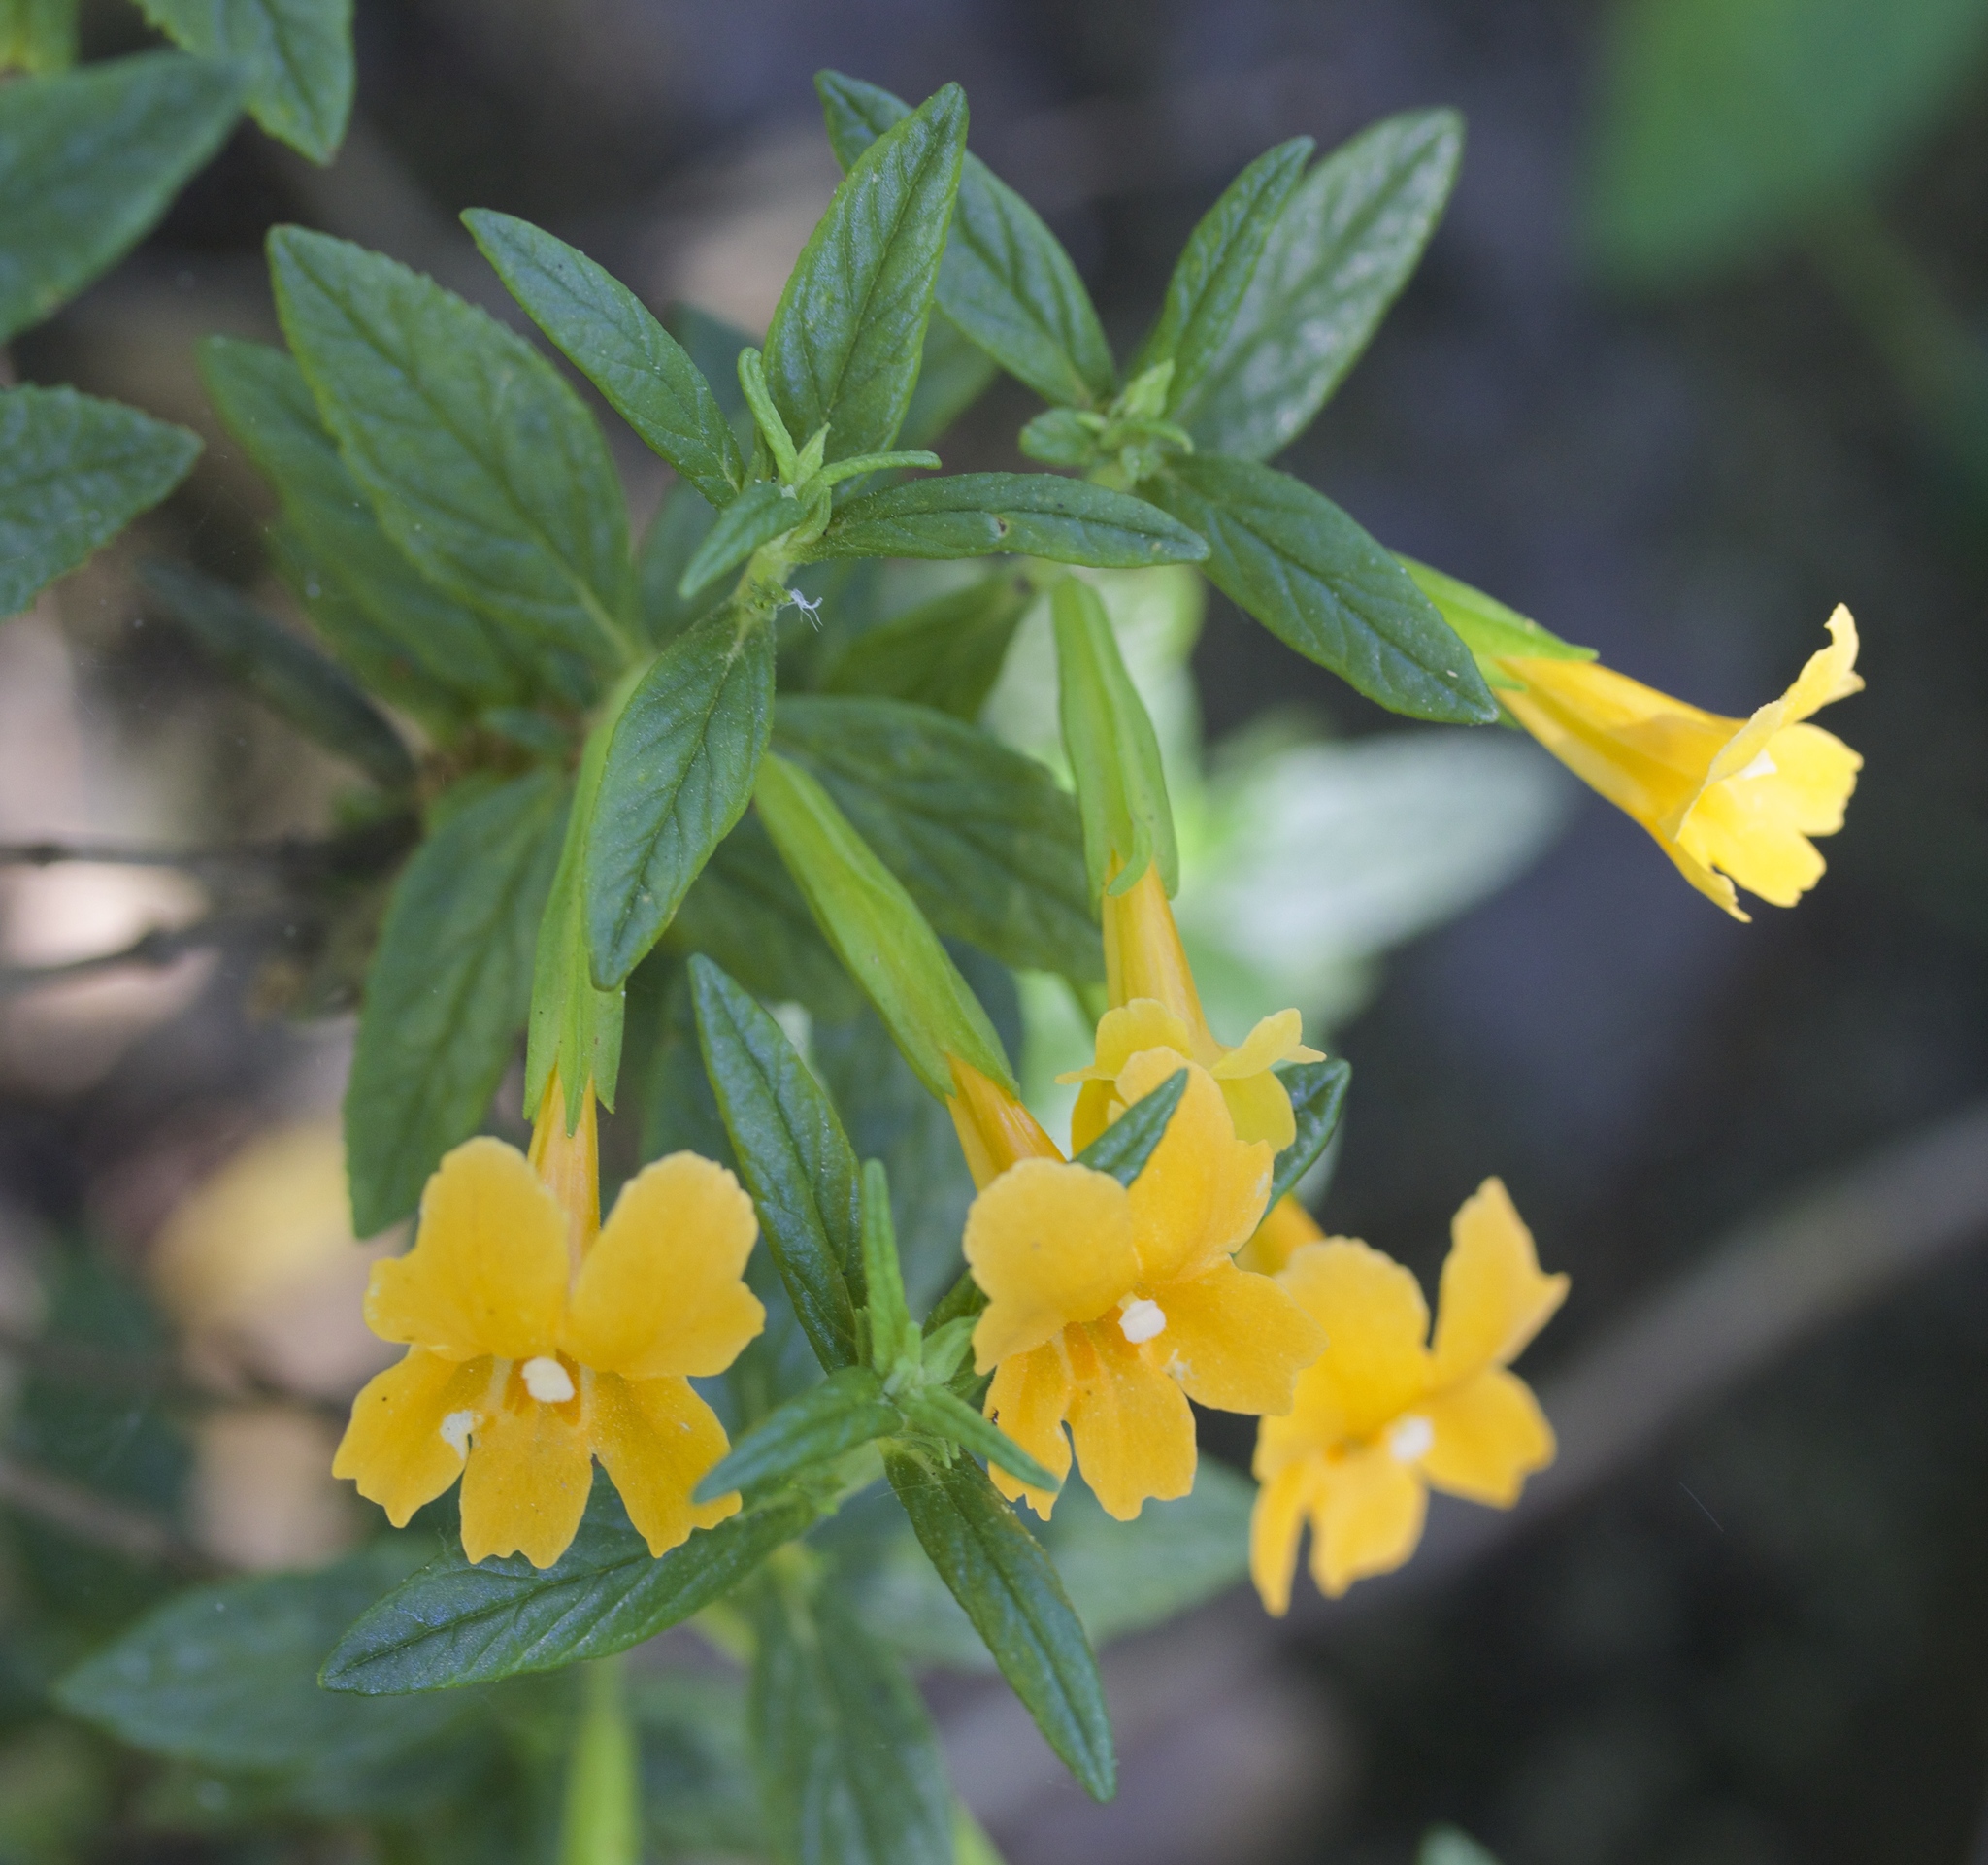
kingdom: Plantae
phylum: Tracheophyta
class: Magnoliopsida
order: Lamiales
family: Phrymaceae
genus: Diplacus
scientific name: Diplacus aurantiacus
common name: Bush monkey-flower
